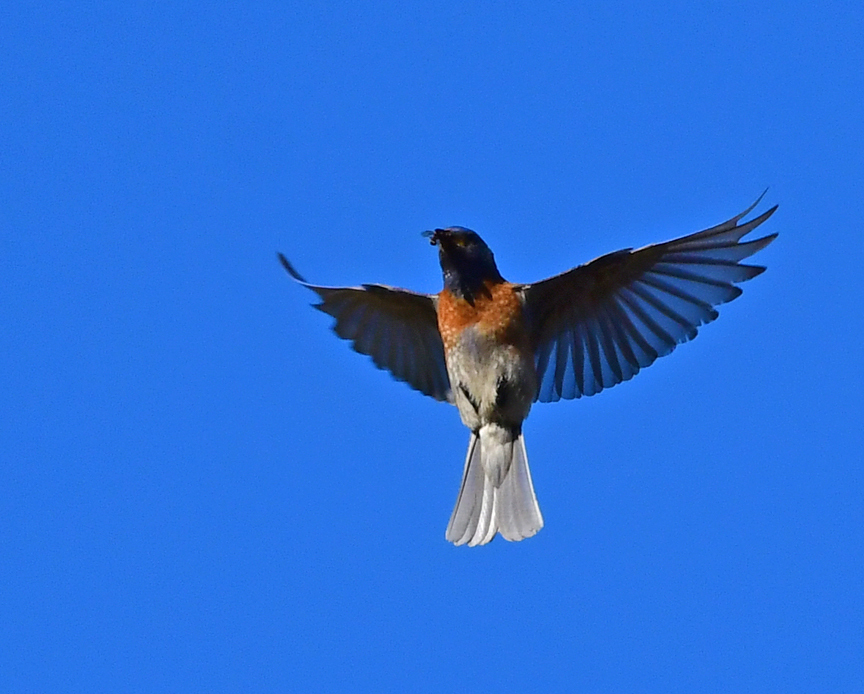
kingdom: Animalia
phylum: Chordata
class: Aves
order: Passeriformes
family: Turdidae
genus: Sialia
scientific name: Sialia mexicana
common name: Western bluebird
